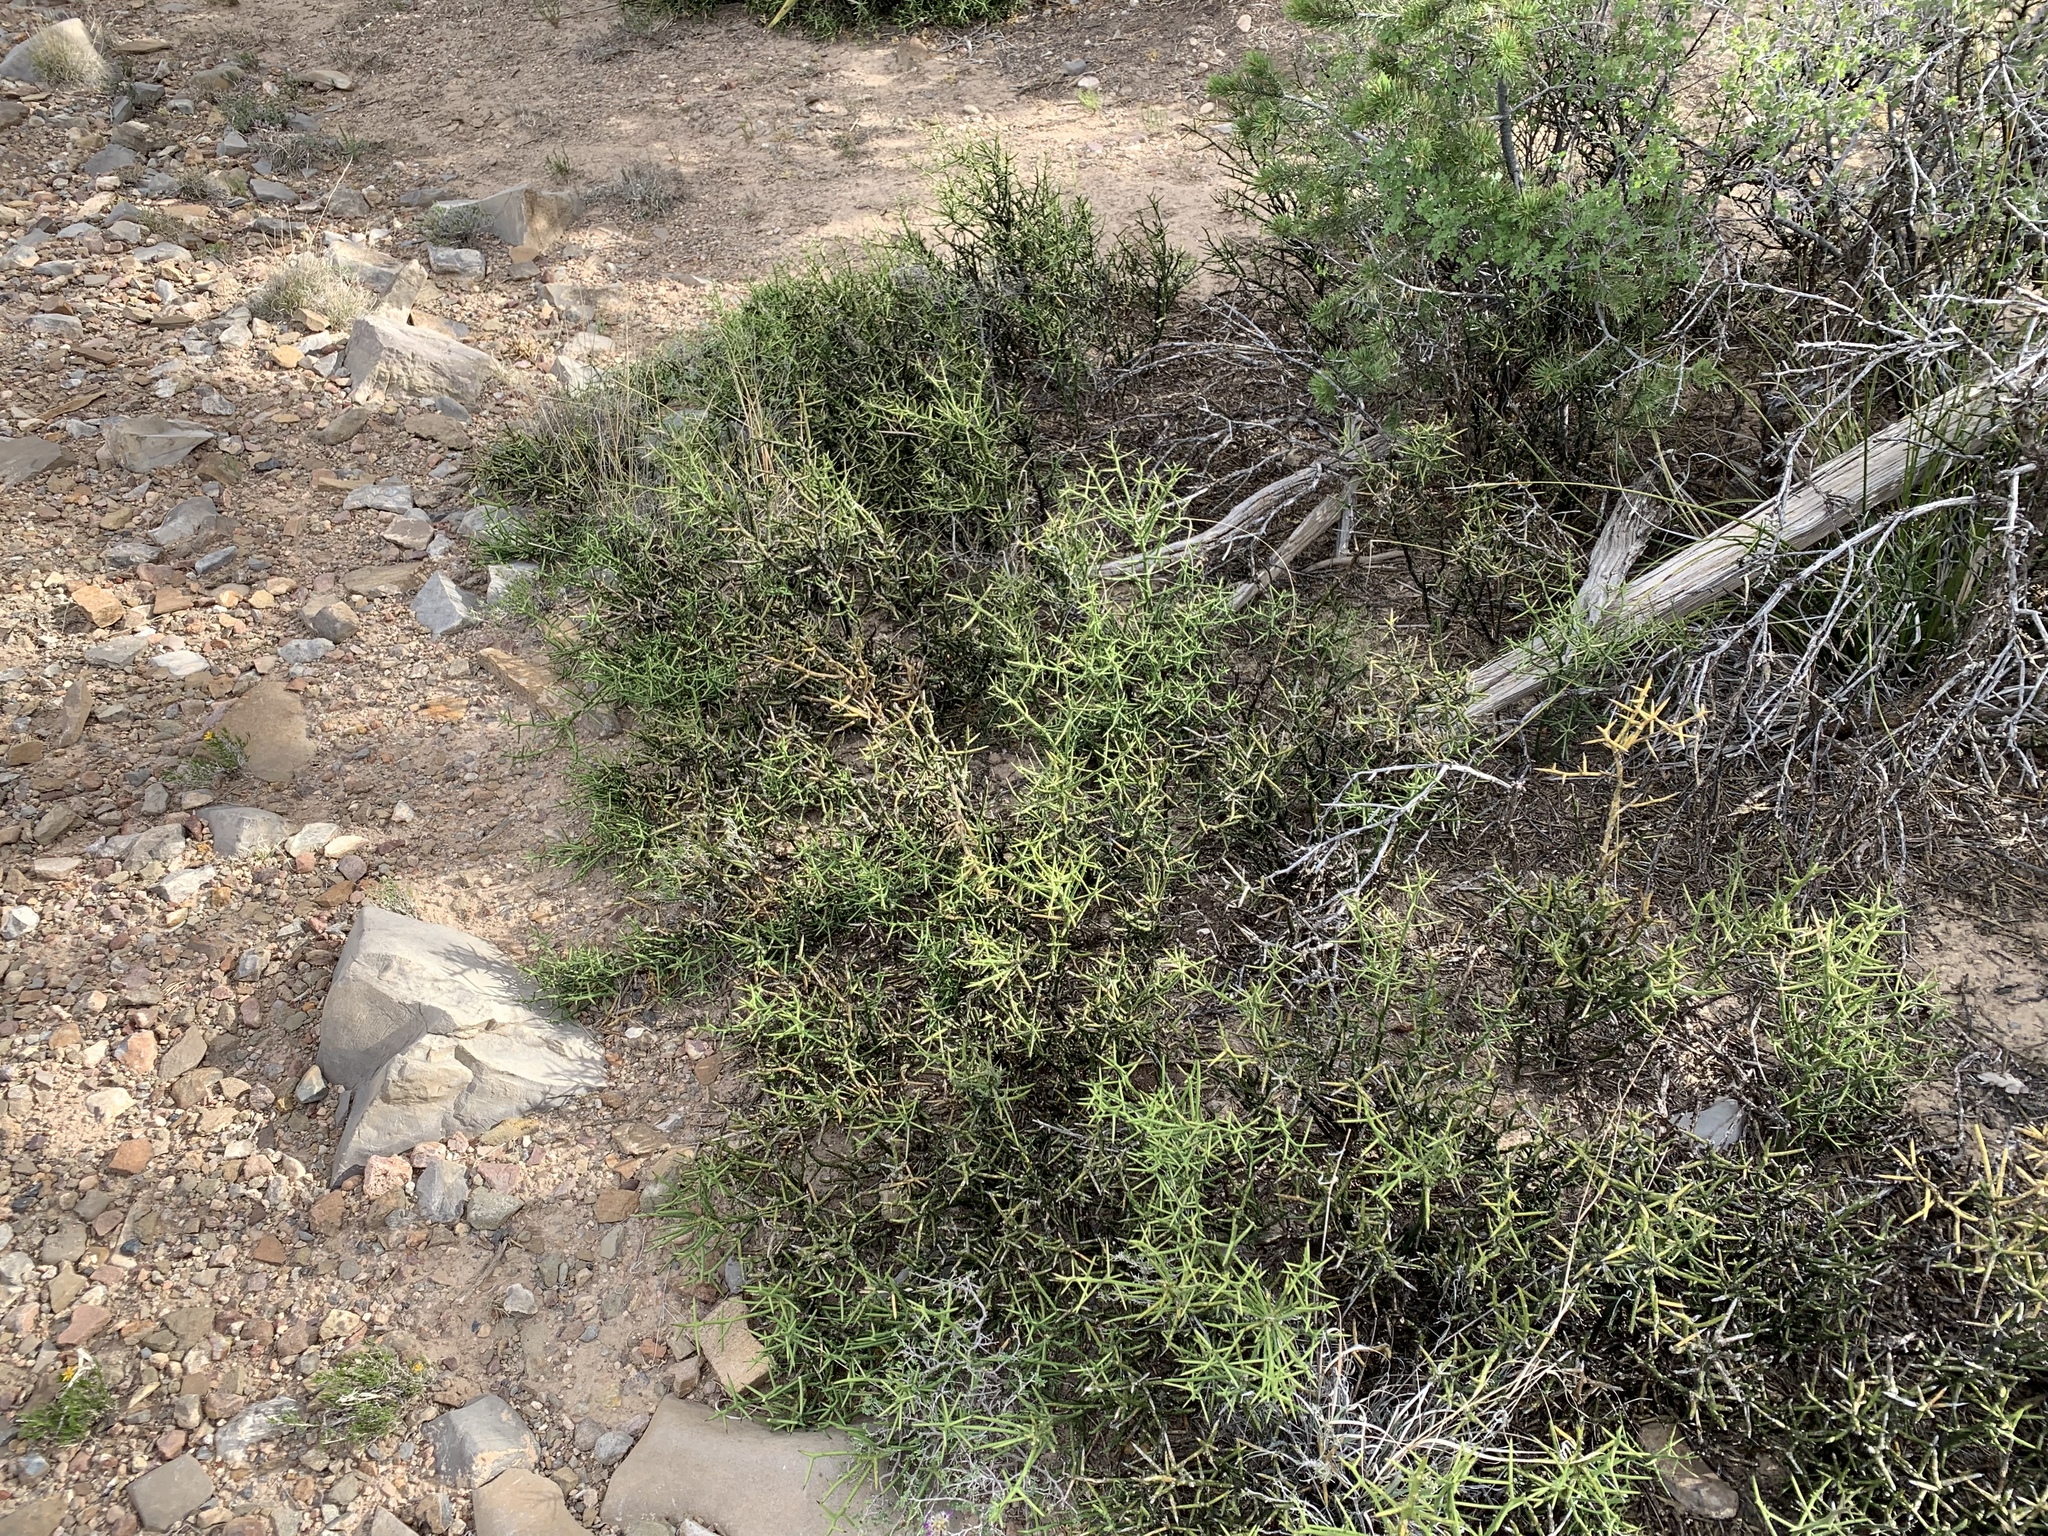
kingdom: Plantae
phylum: Tracheophyta
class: Magnoliopsida
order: Brassicales
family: Koeberliniaceae
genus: Koeberlinia
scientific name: Koeberlinia spinosa
